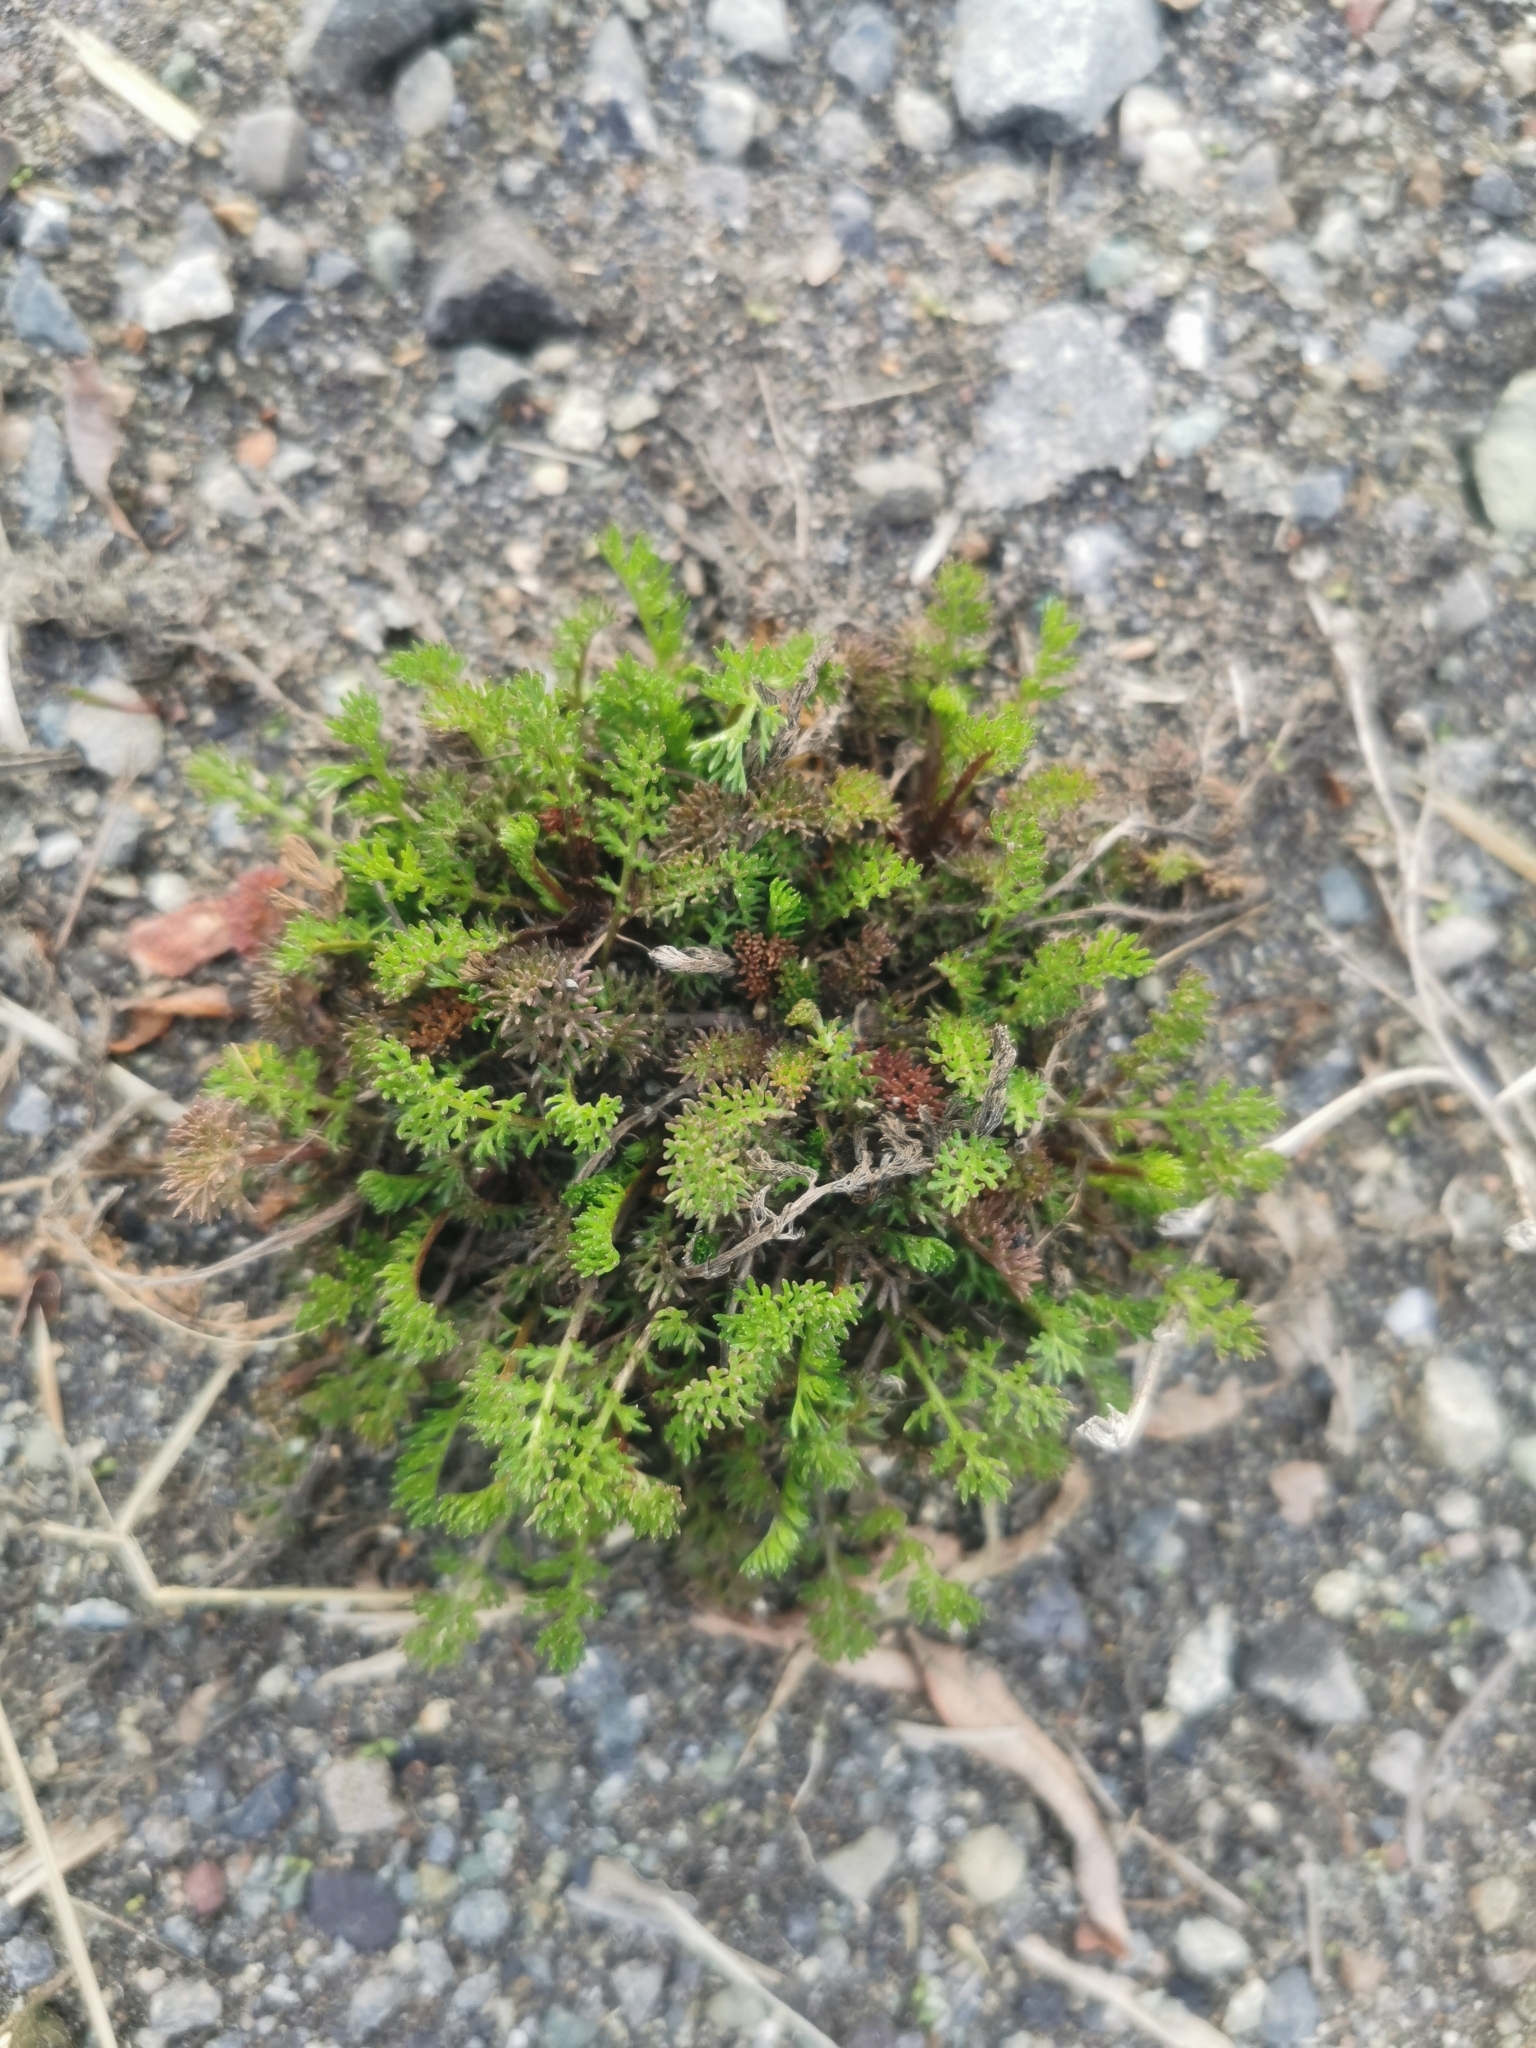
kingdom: Plantae
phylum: Tracheophyta
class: Magnoliopsida
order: Asterales
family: Asteraceae
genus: Achillea
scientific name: Achillea millefolium
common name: Yarrow
